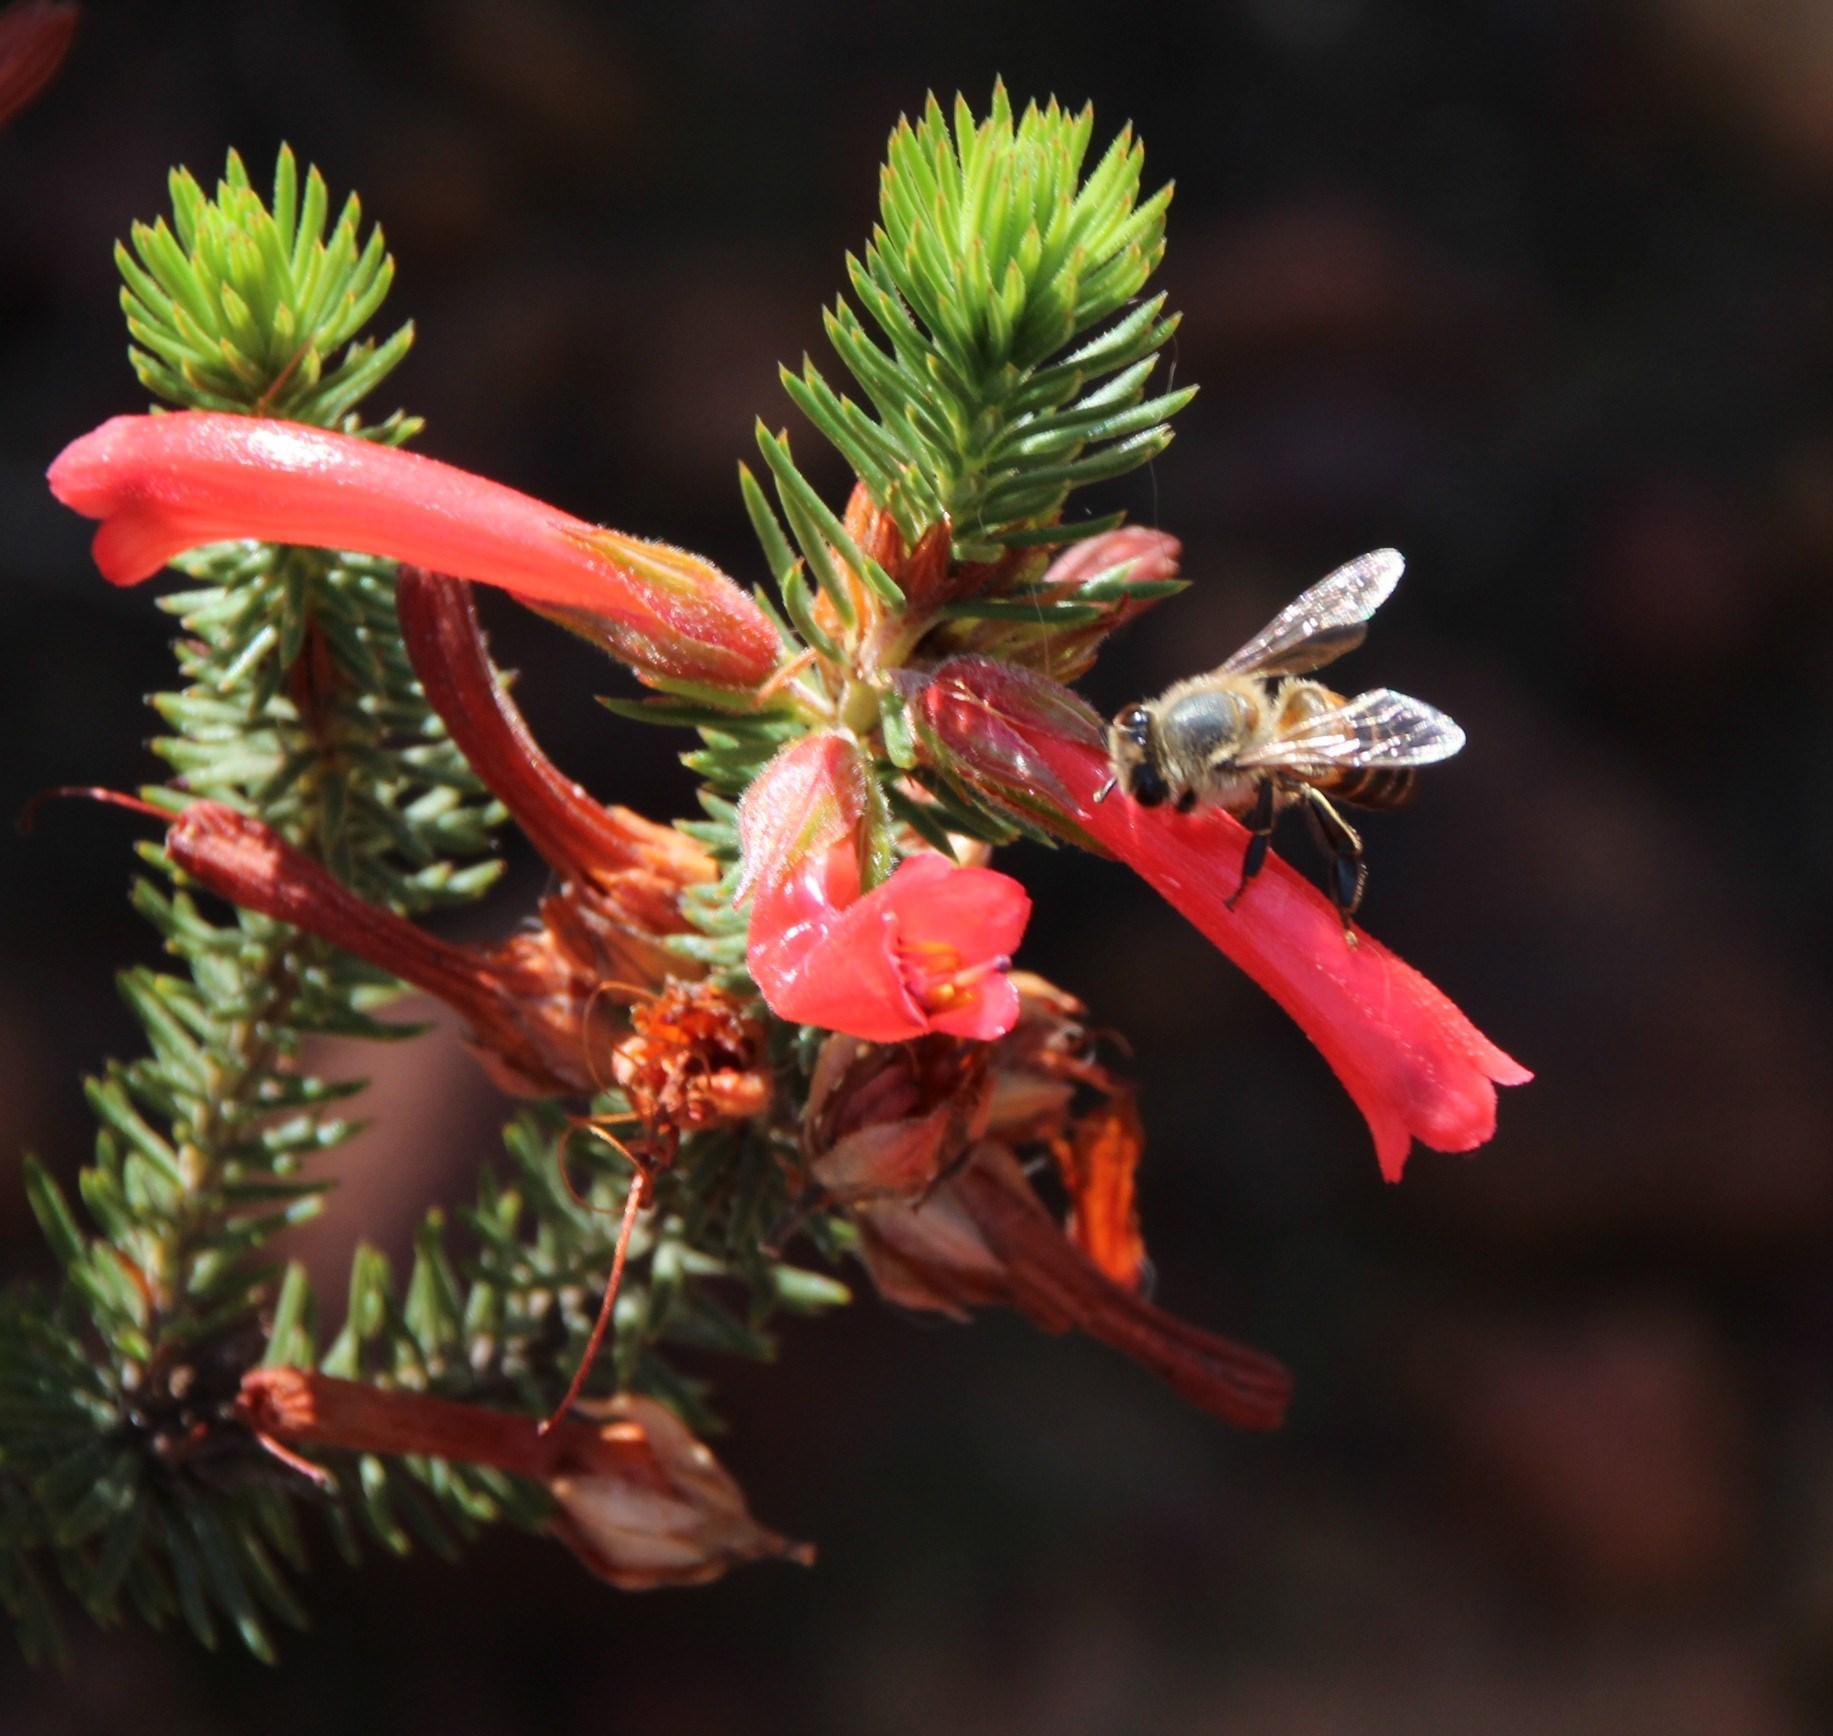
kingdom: Animalia
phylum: Arthropoda
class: Insecta
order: Hymenoptera
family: Apidae
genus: Apis
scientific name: Apis mellifera
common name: Honey bee
